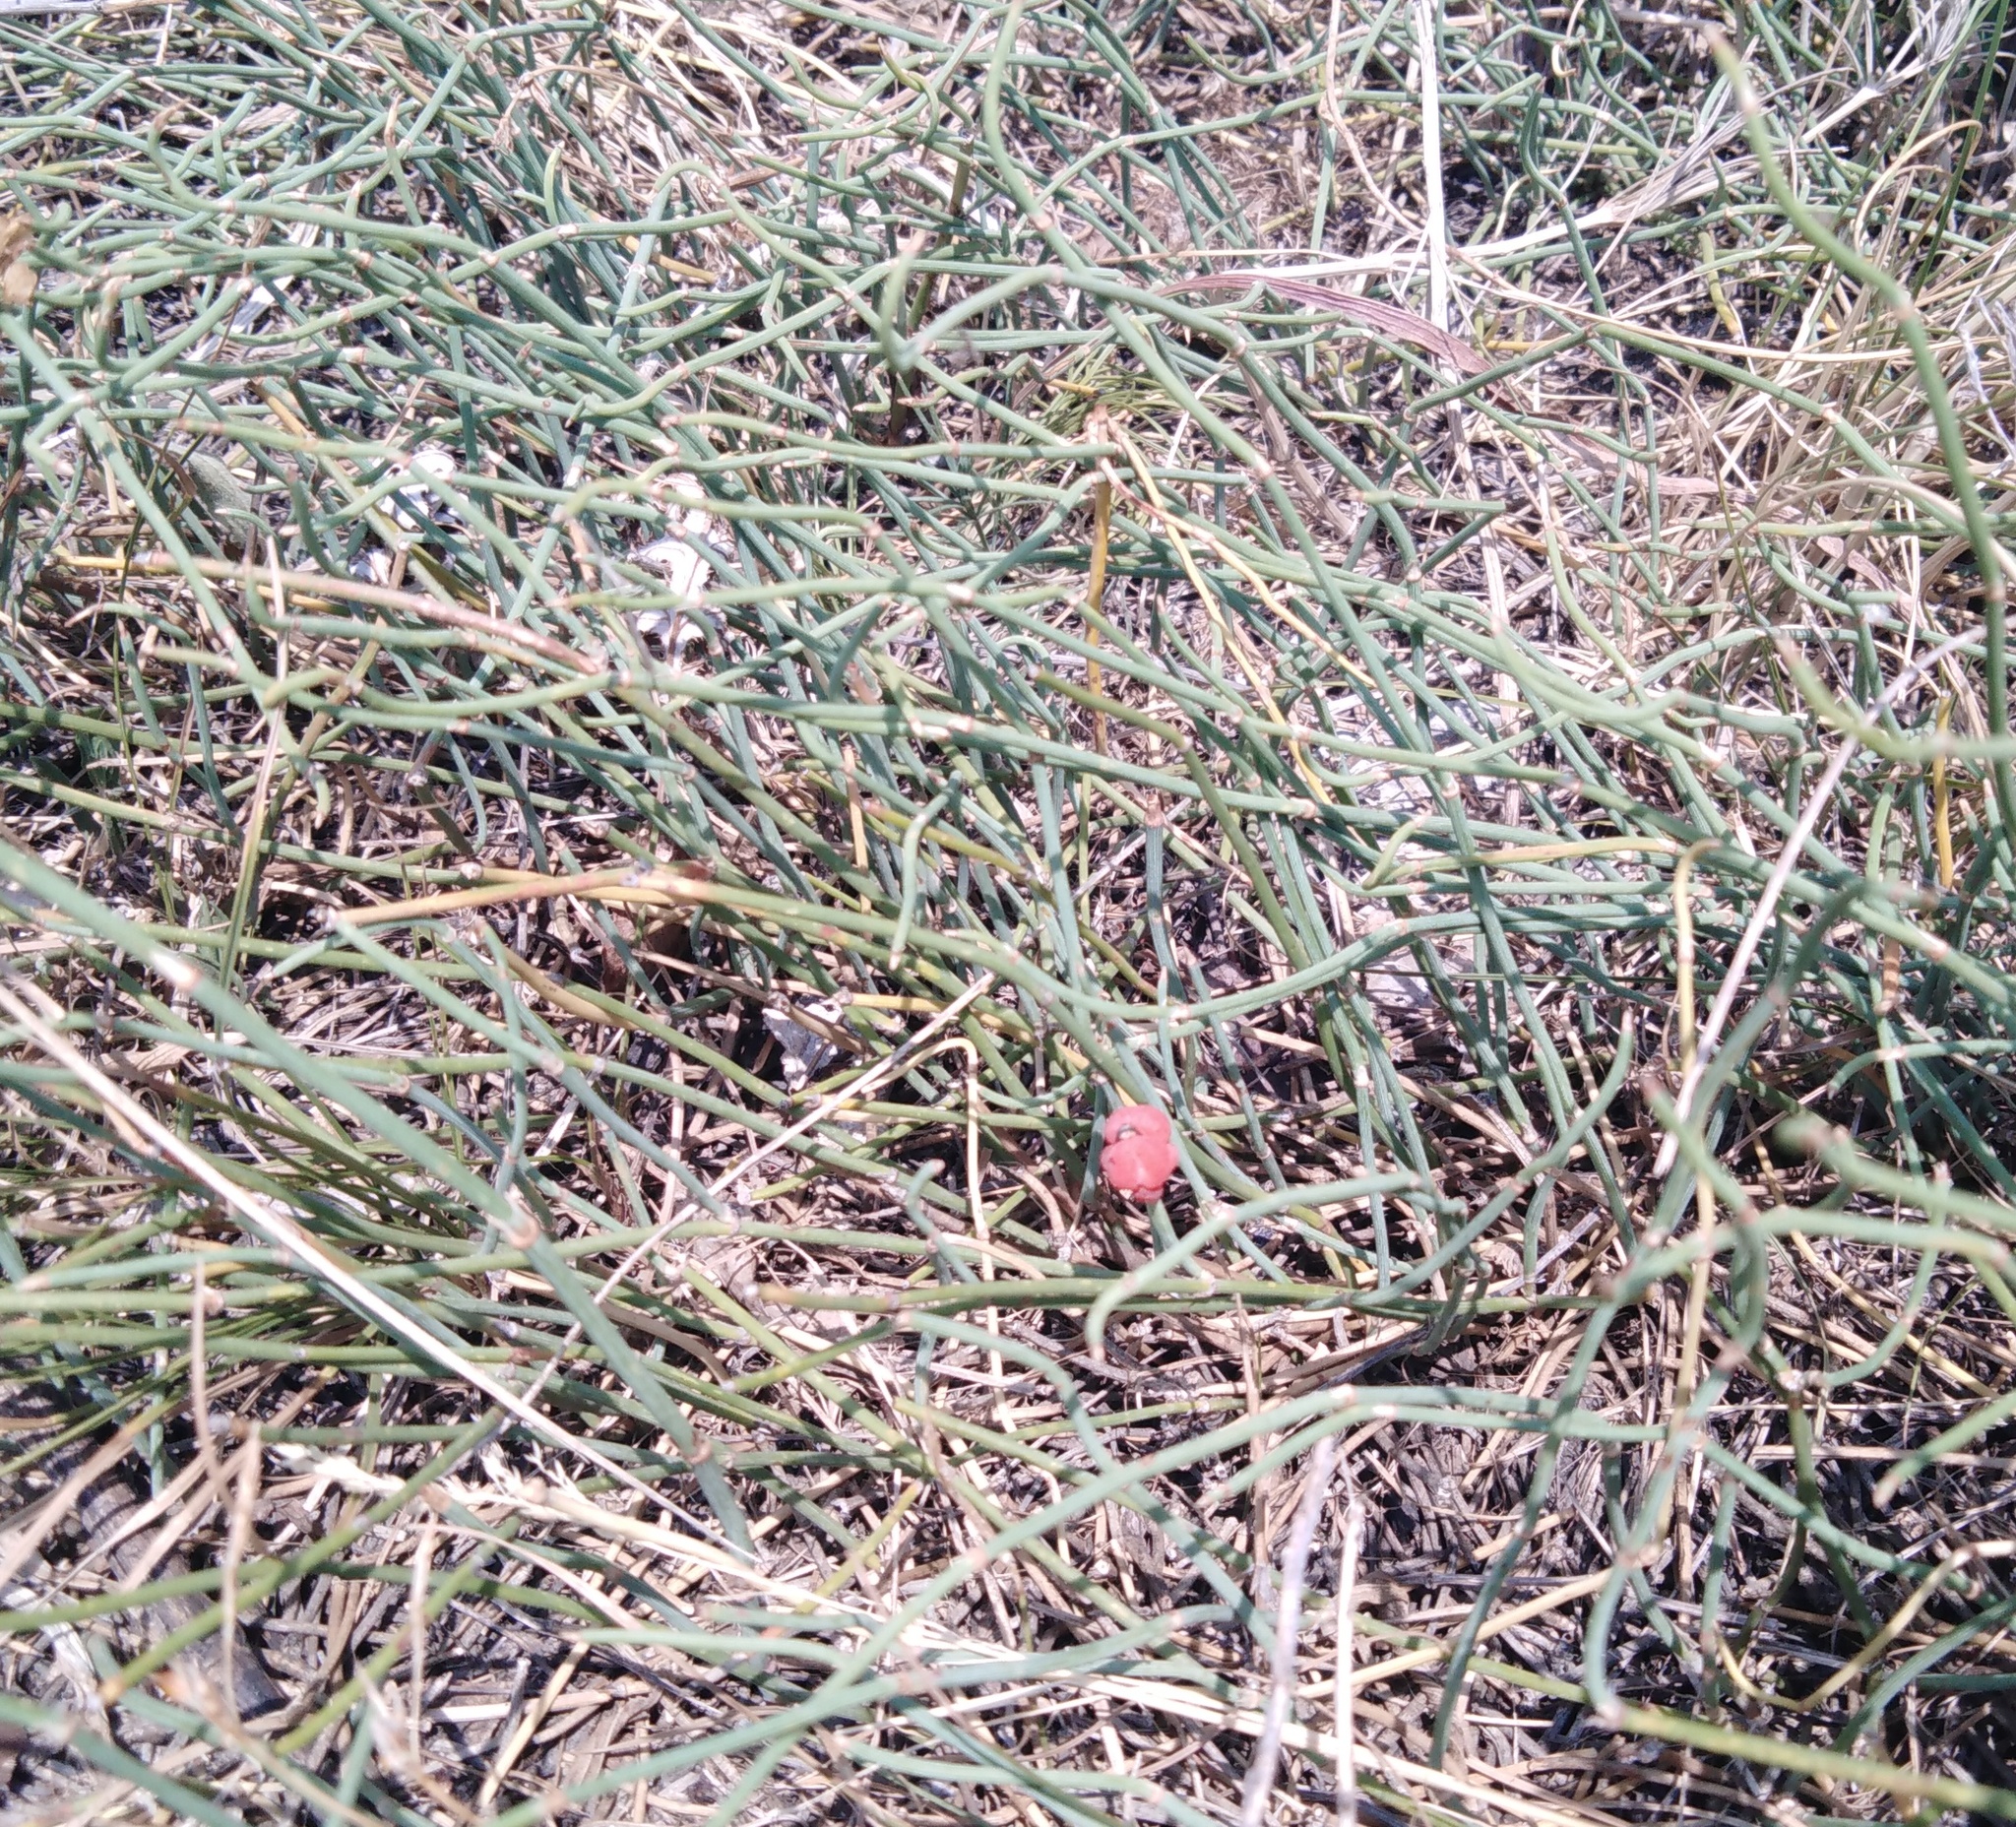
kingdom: Plantae
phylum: Tracheophyta
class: Gnetopsida
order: Ephedrales
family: Ephedraceae
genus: Ephedra
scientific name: Ephedra distachya
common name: Sea grape
